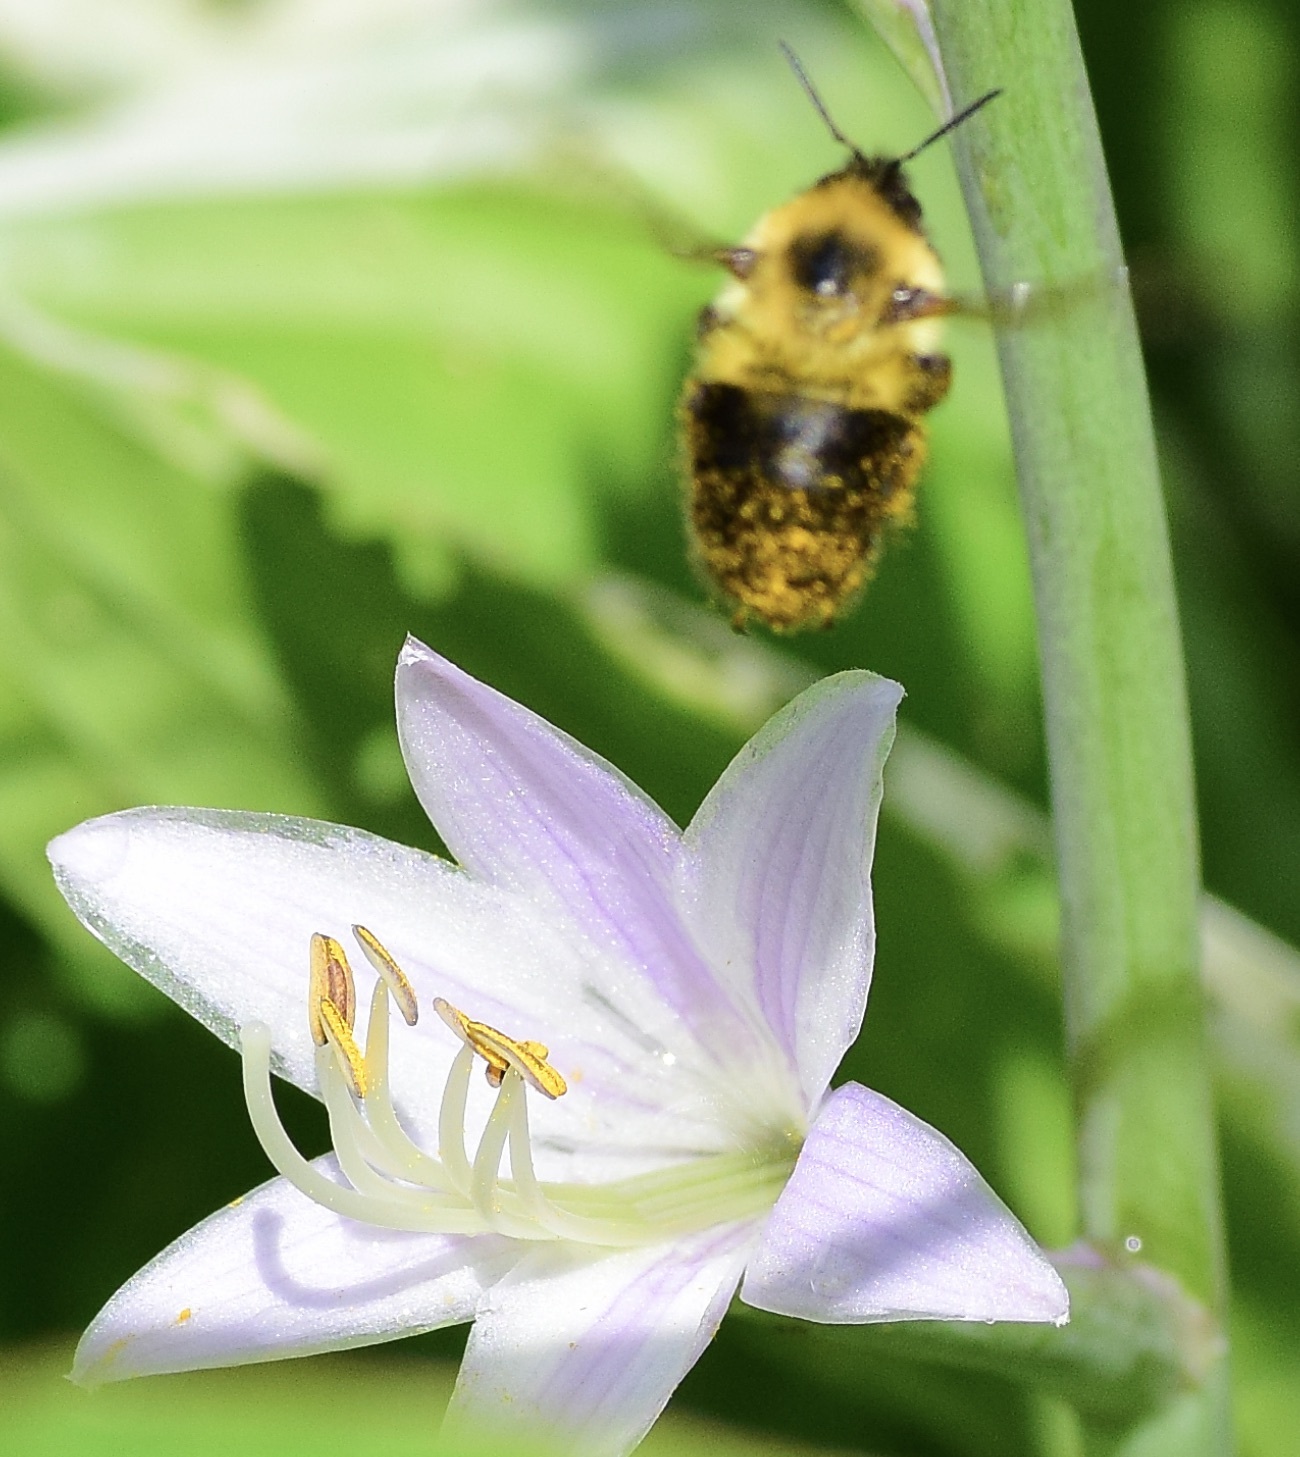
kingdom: Animalia
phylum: Arthropoda
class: Insecta
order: Hymenoptera
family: Apidae
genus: Bombus
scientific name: Bombus bimaculatus
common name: Two-spotted bumble bee
